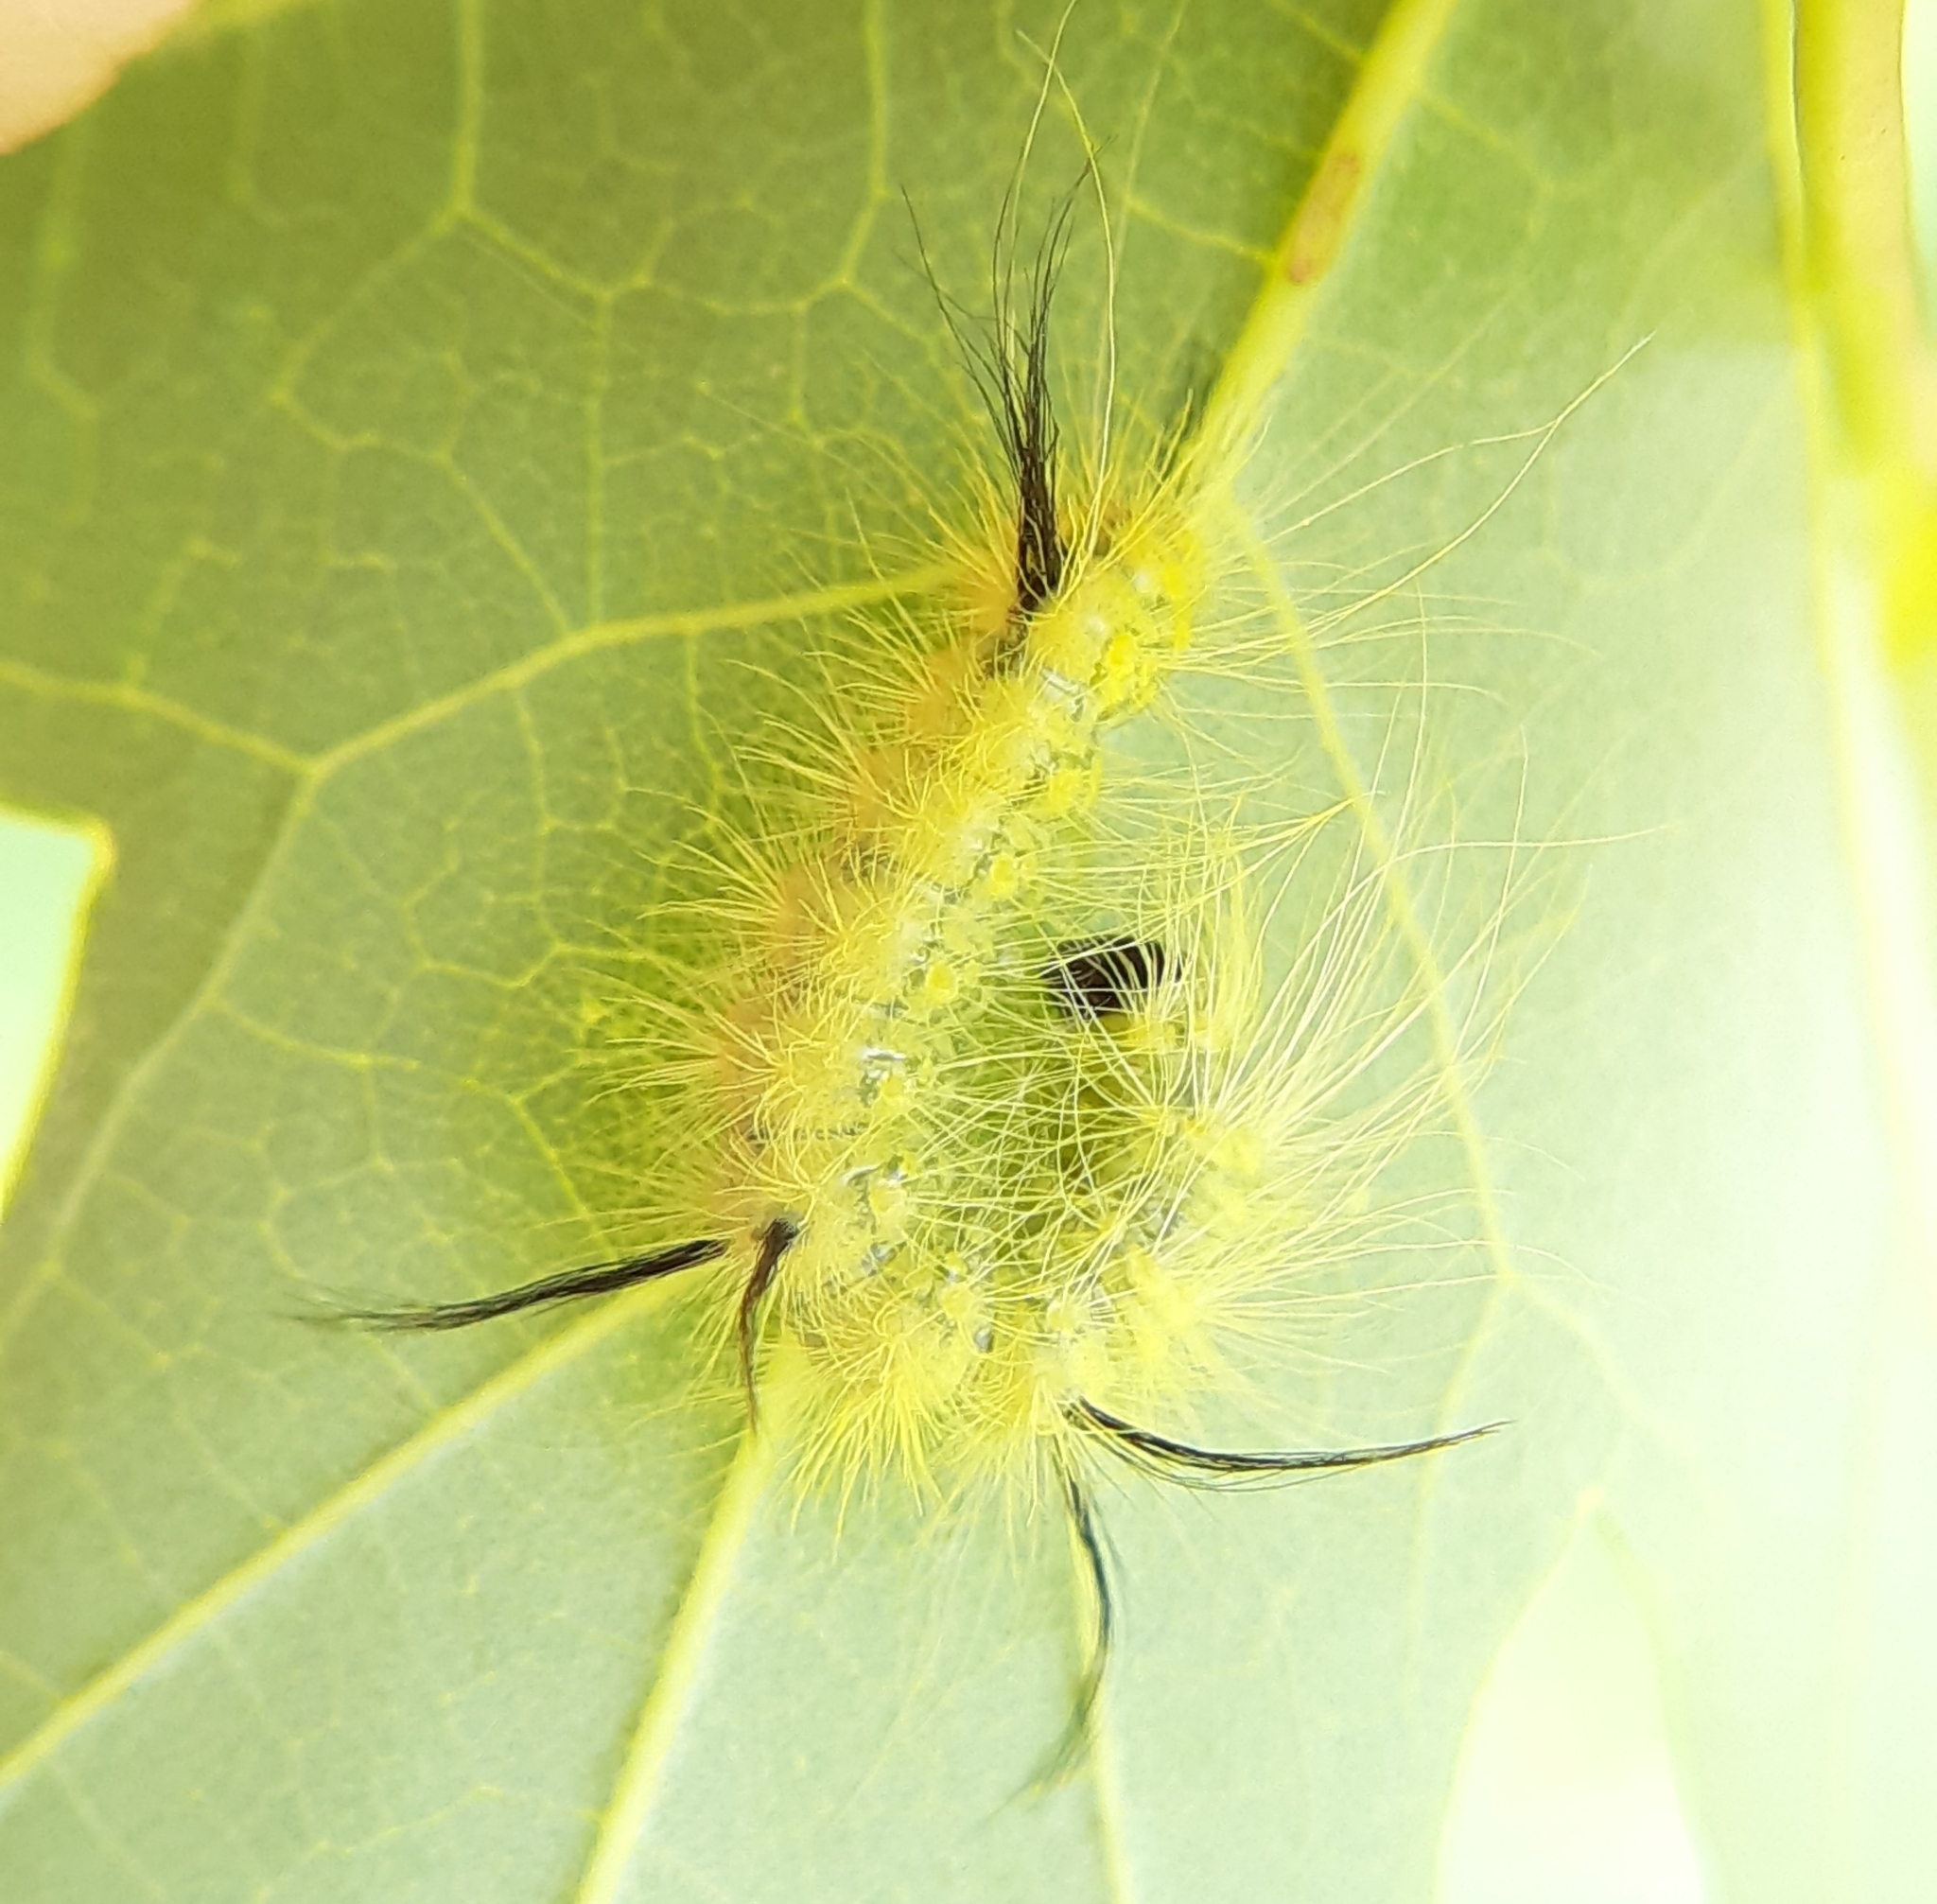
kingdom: Animalia
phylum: Arthropoda
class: Insecta
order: Lepidoptera
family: Noctuidae
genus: Acronicta
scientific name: Acronicta americana
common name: American dagger
